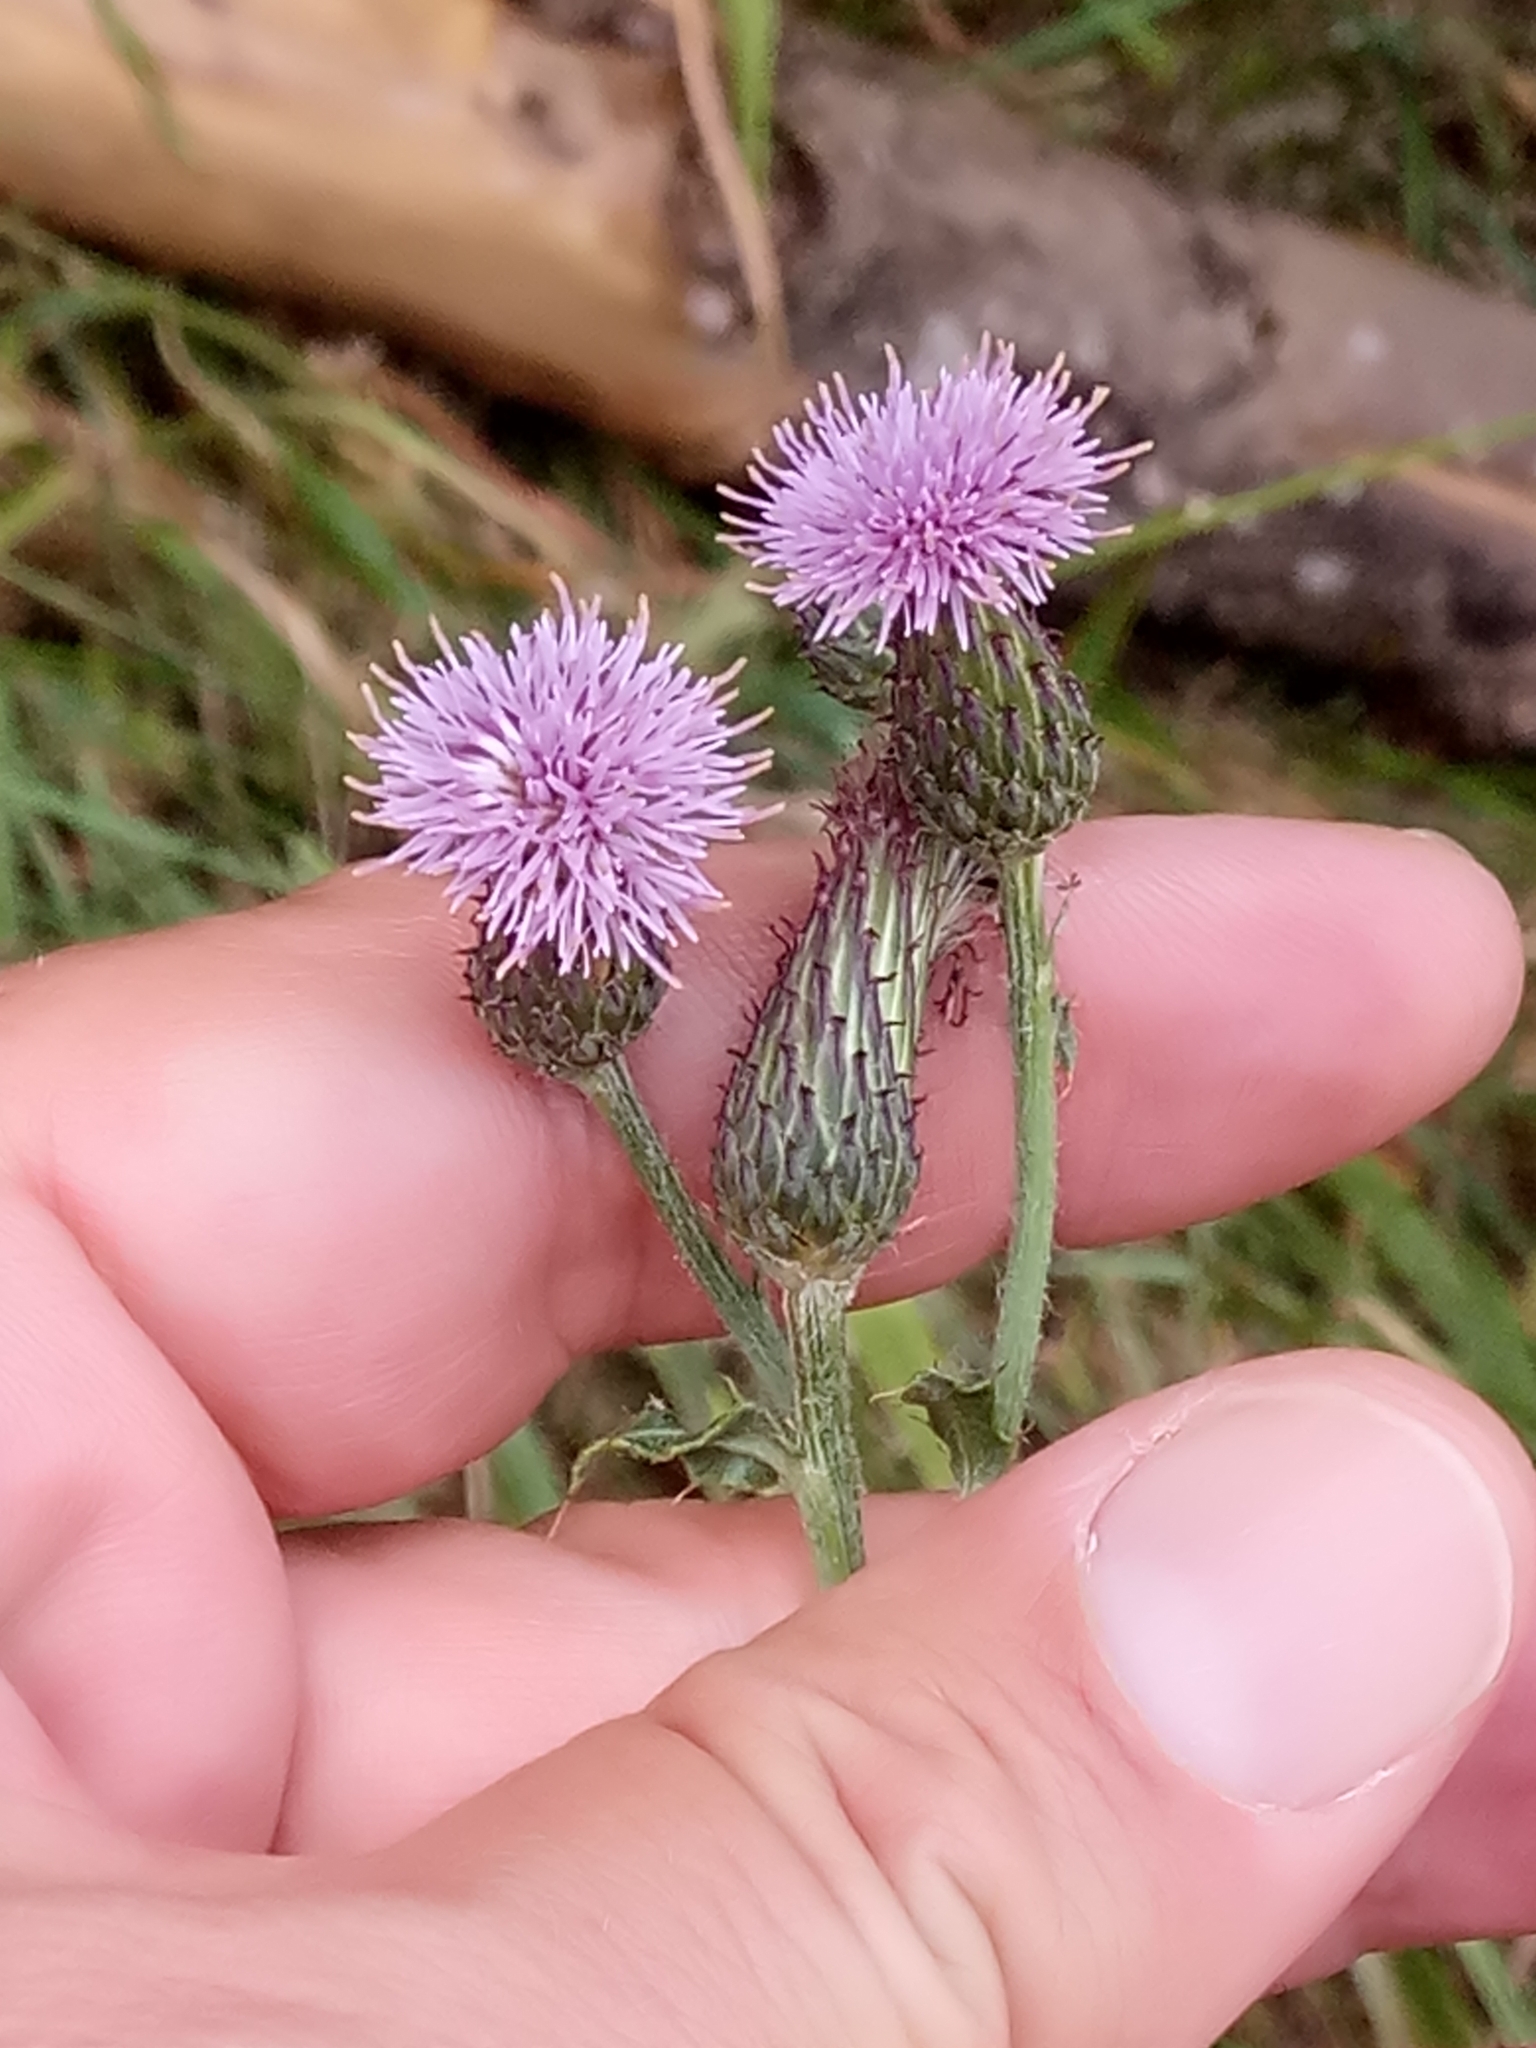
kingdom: Plantae
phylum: Tracheophyta
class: Magnoliopsida
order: Asterales
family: Asteraceae
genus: Cirsium
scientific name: Cirsium arvense
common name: Creeping thistle
